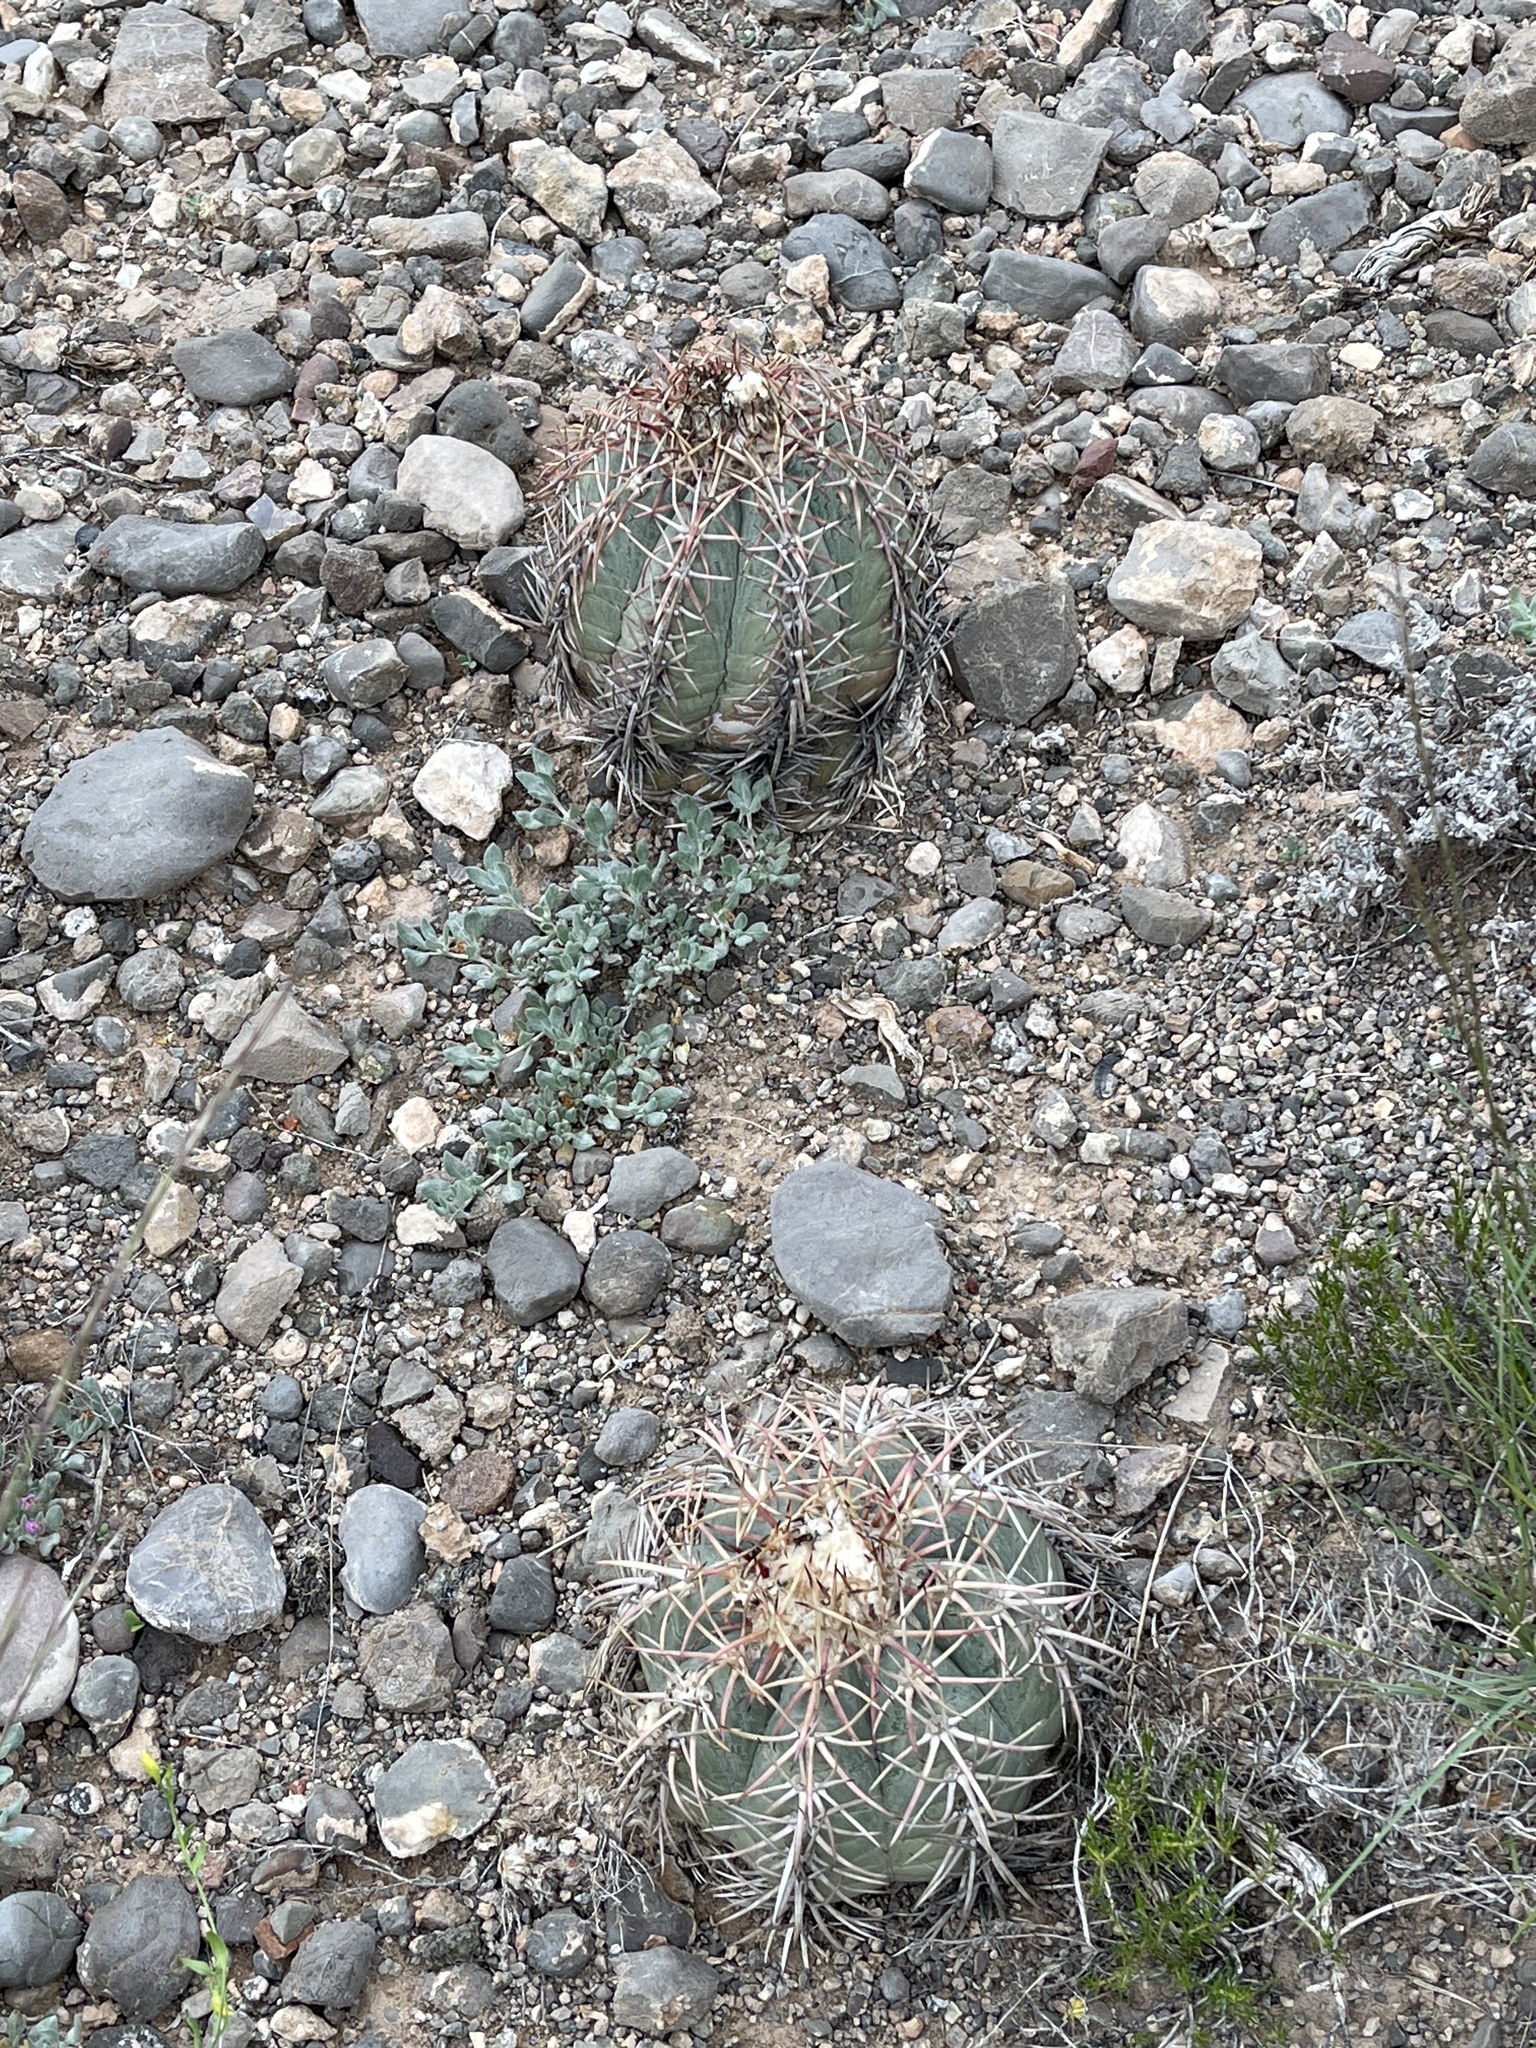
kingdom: Plantae
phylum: Tracheophyta
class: Magnoliopsida
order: Caryophyllales
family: Cactaceae
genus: Echinocactus
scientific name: Echinocactus horizonthalonius
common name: Devilshead
